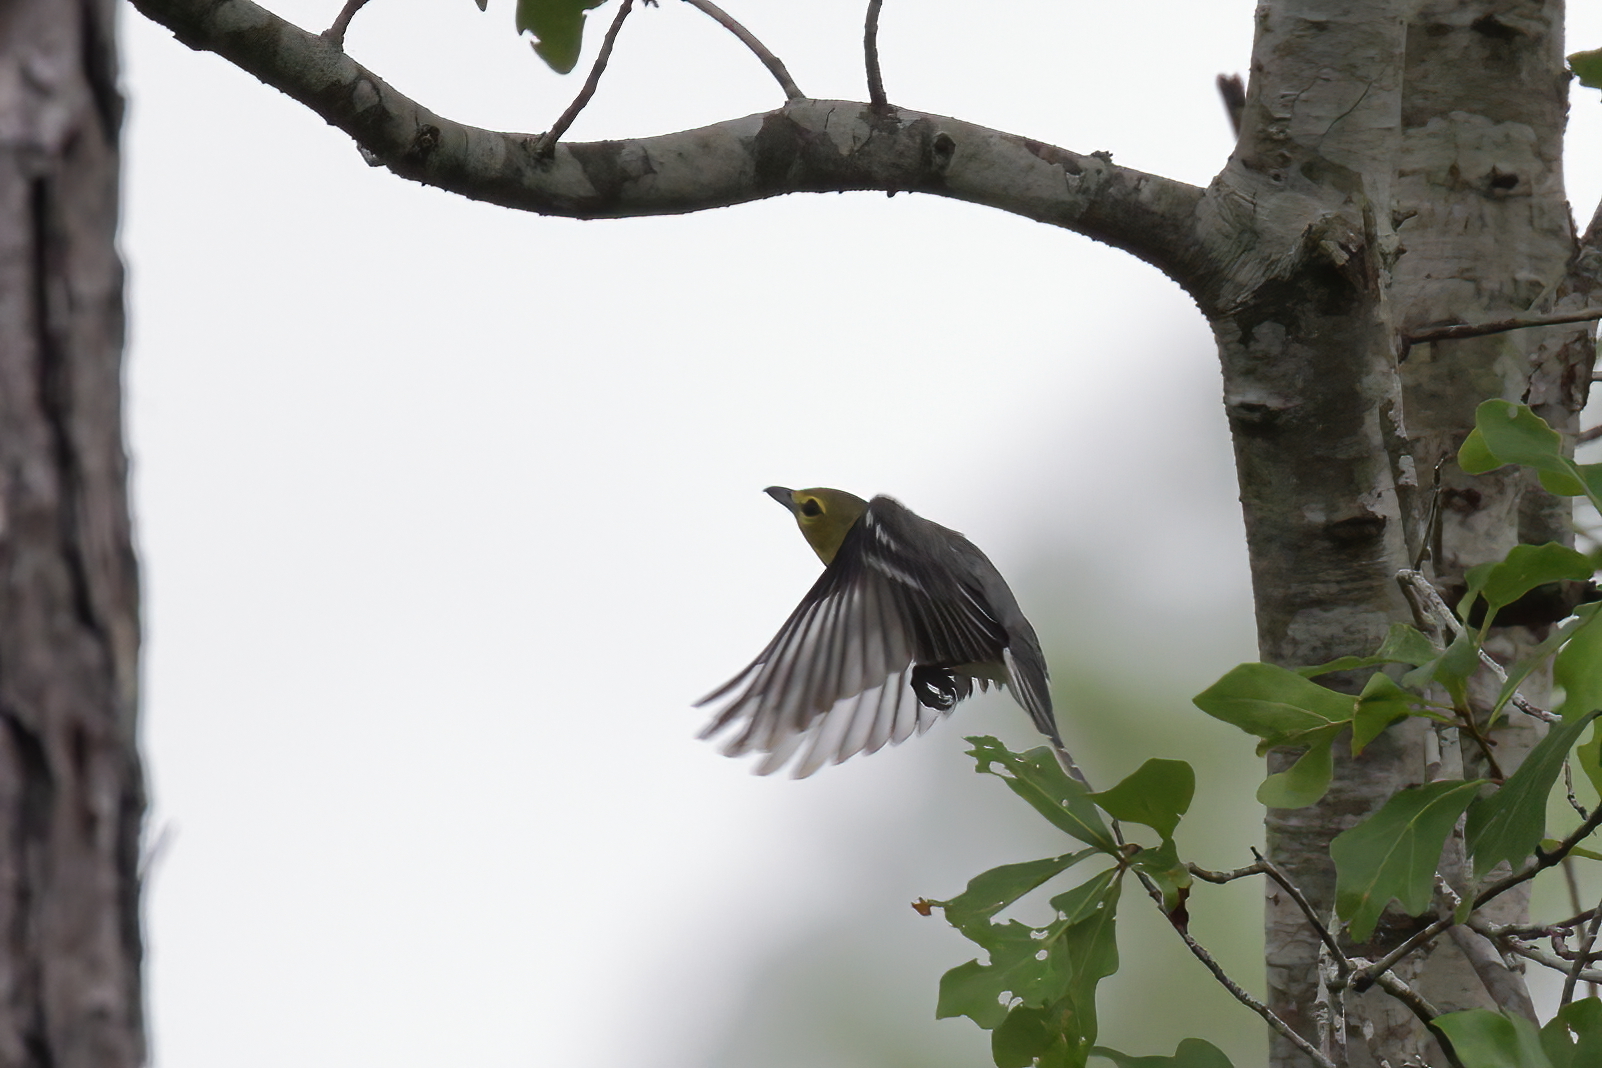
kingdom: Animalia
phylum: Chordata
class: Aves
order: Passeriformes
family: Vireonidae
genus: Vireo
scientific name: Vireo flavifrons
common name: Yellow-throated vireo
